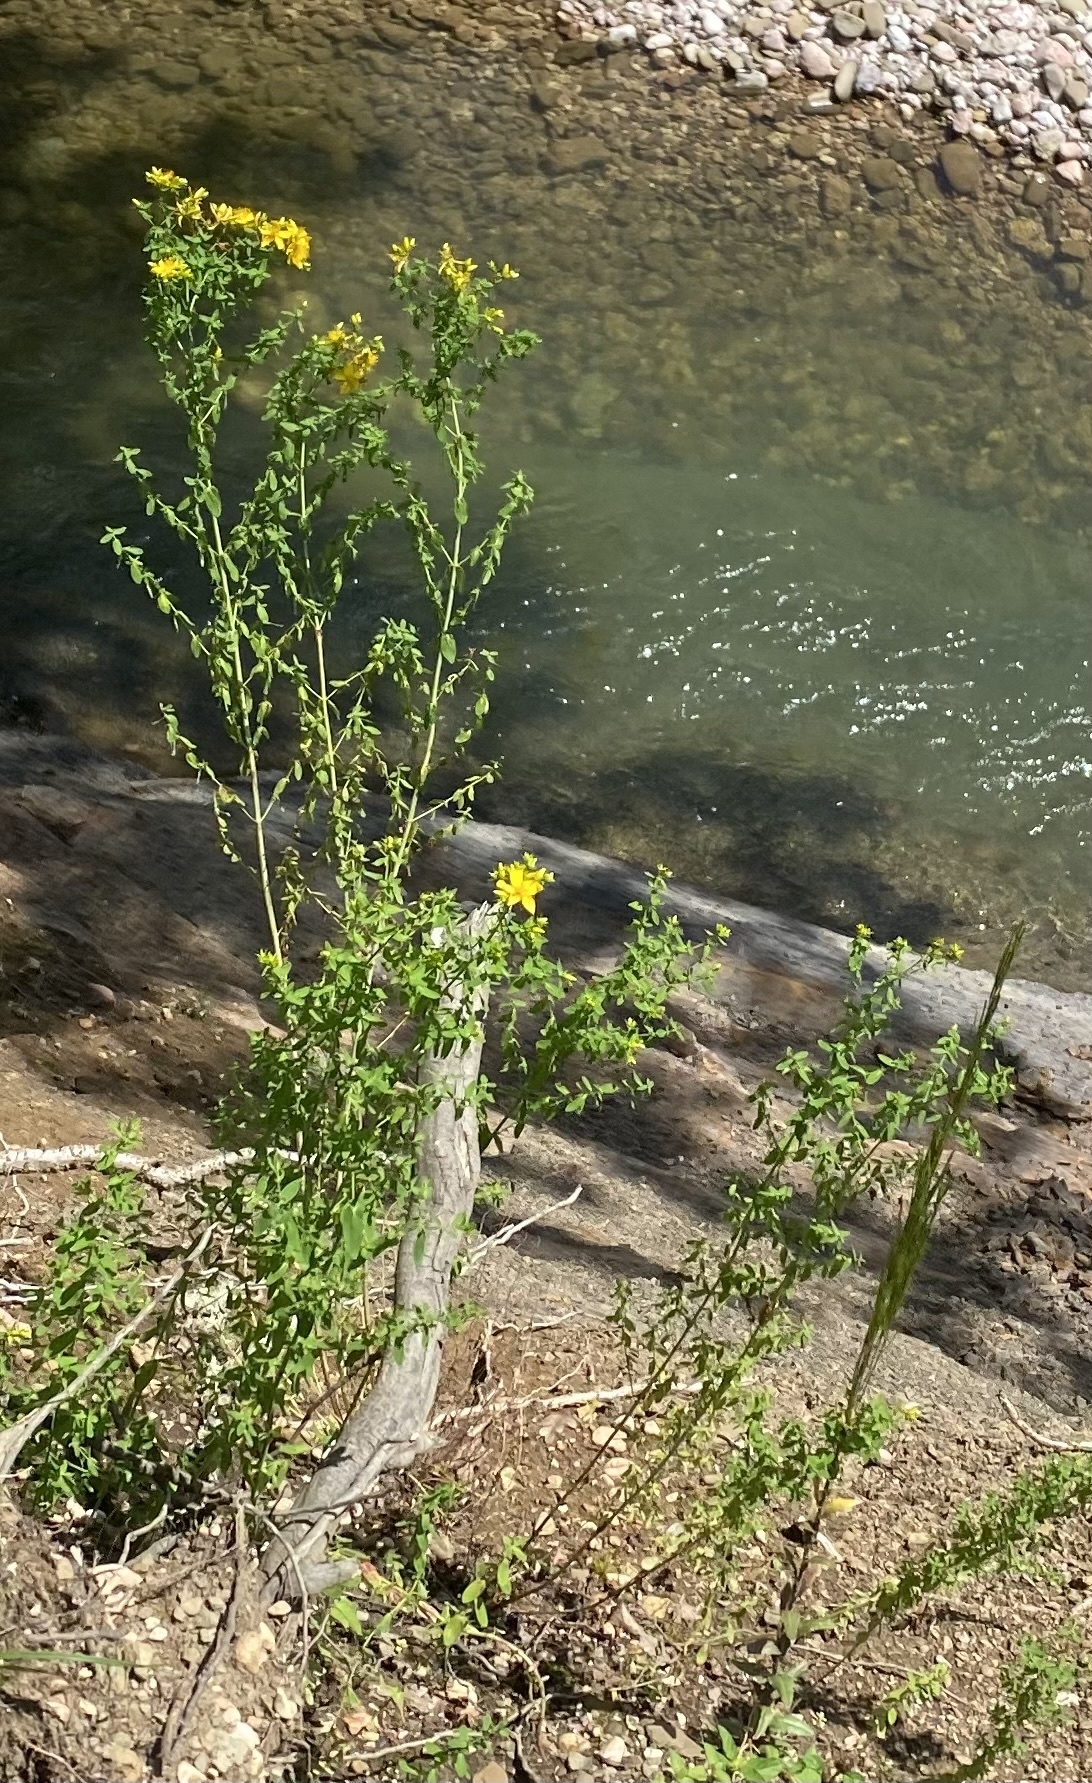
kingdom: Plantae
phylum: Tracheophyta
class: Magnoliopsida
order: Malpighiales
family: Hypericaceae
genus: Hypericum
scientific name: Hypericum perforatum
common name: Common st. johnswort
